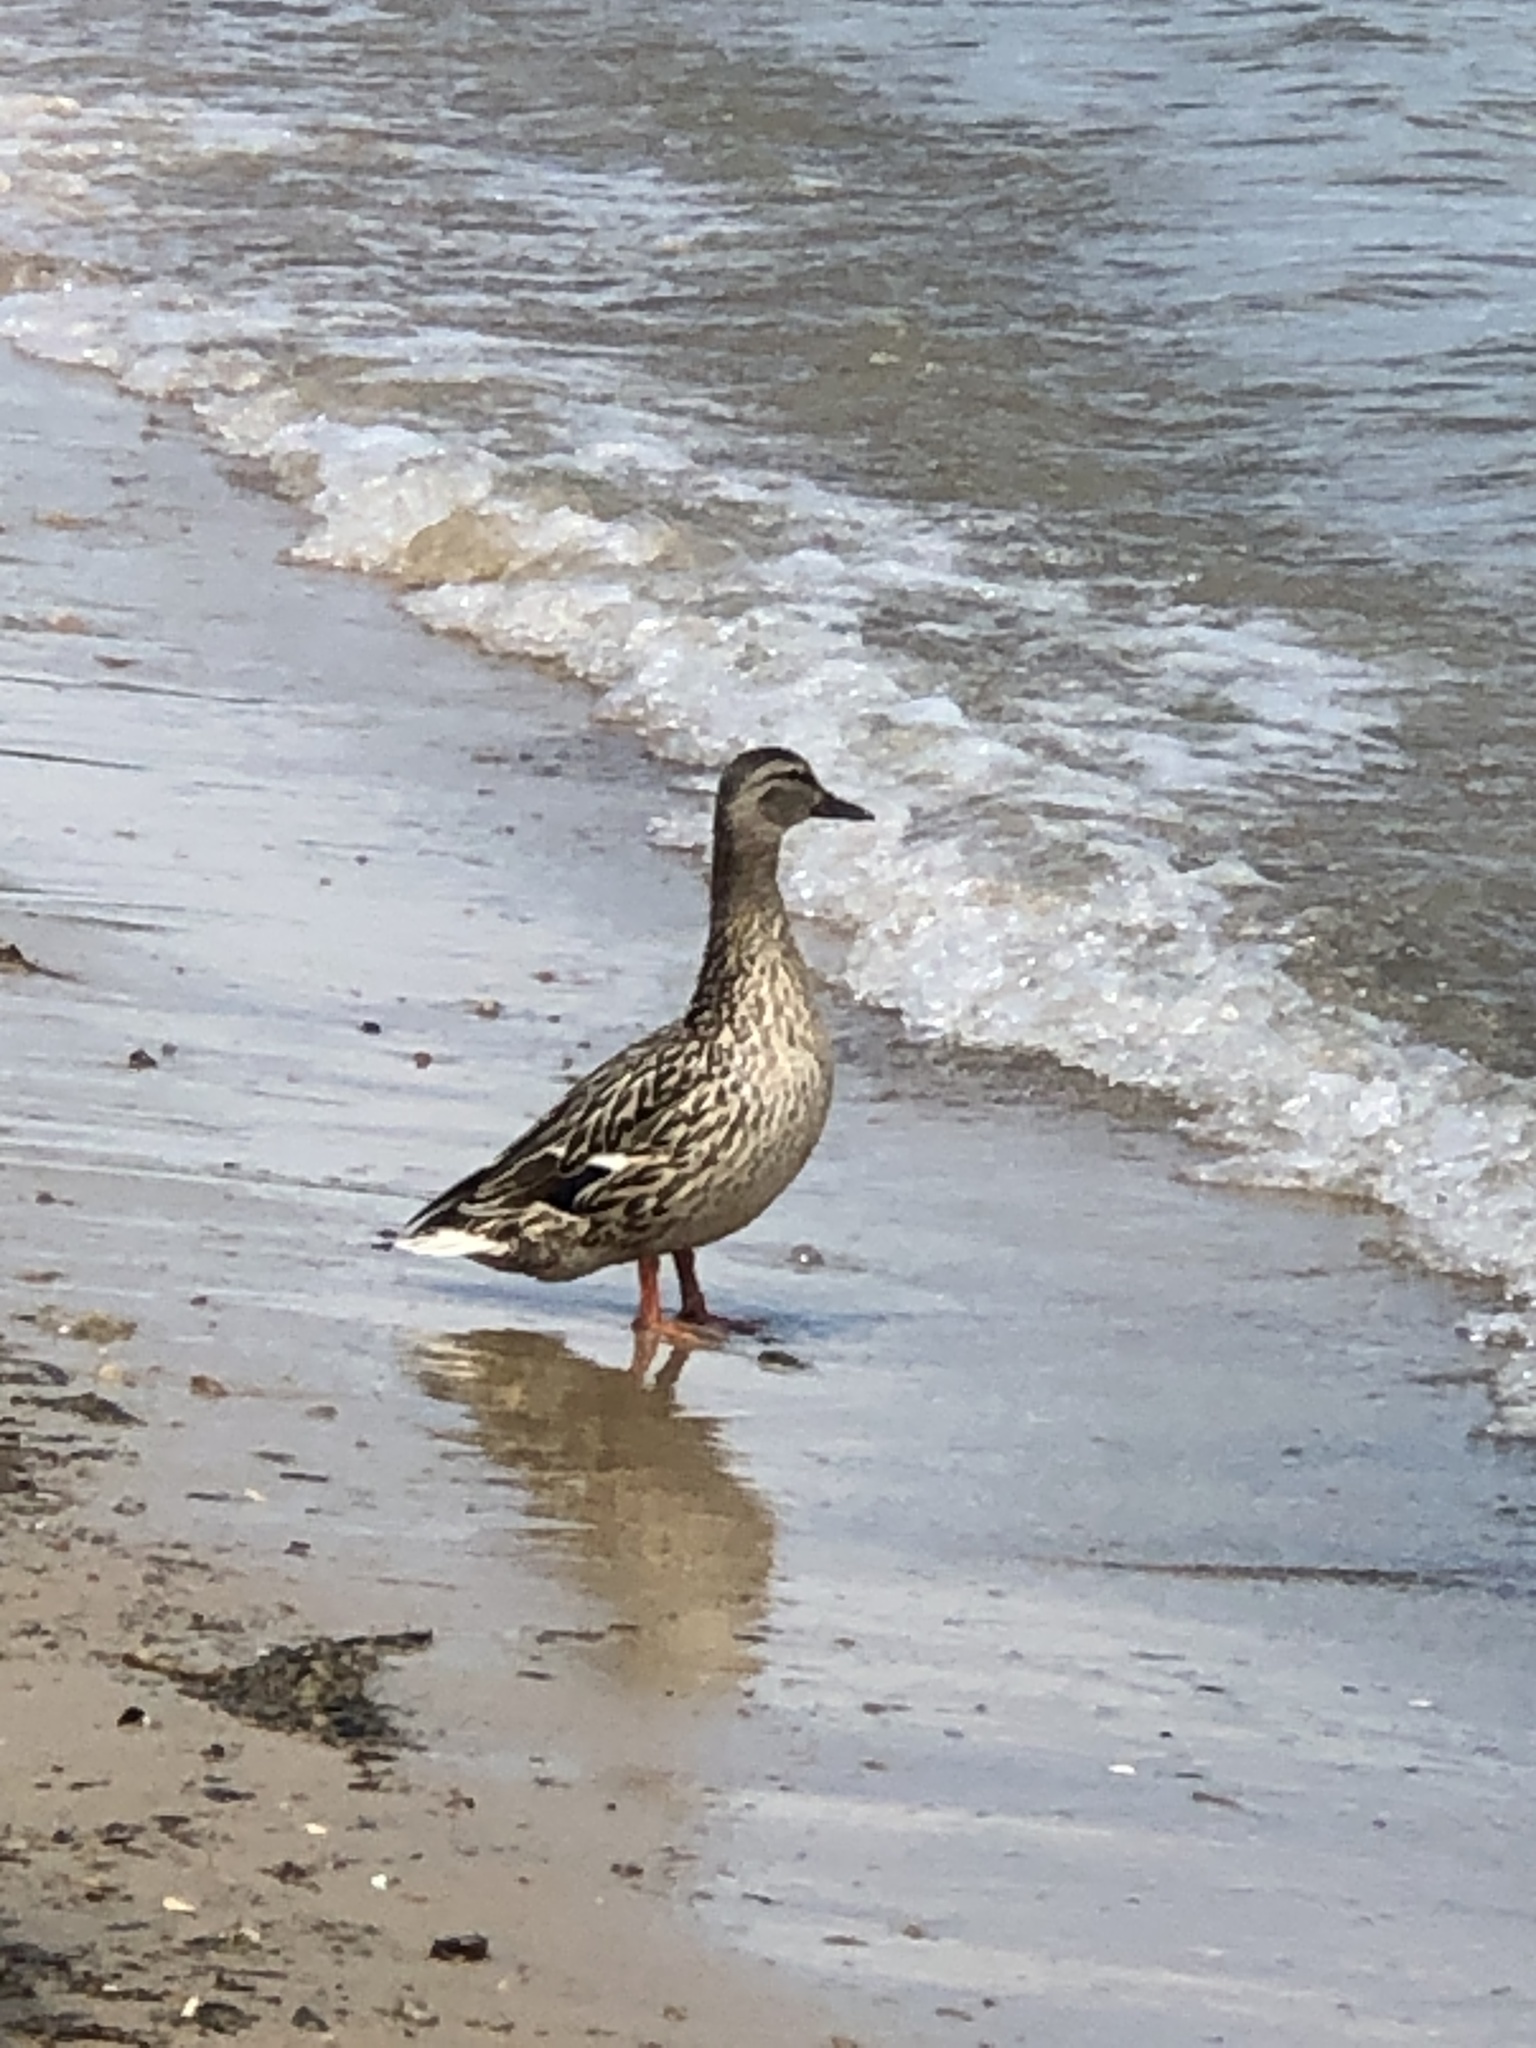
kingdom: Animalia
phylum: Chordata
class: Aves
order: Anseriformes
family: Anatidae
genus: Anas
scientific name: Anas platyrhynchos
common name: Mallard
